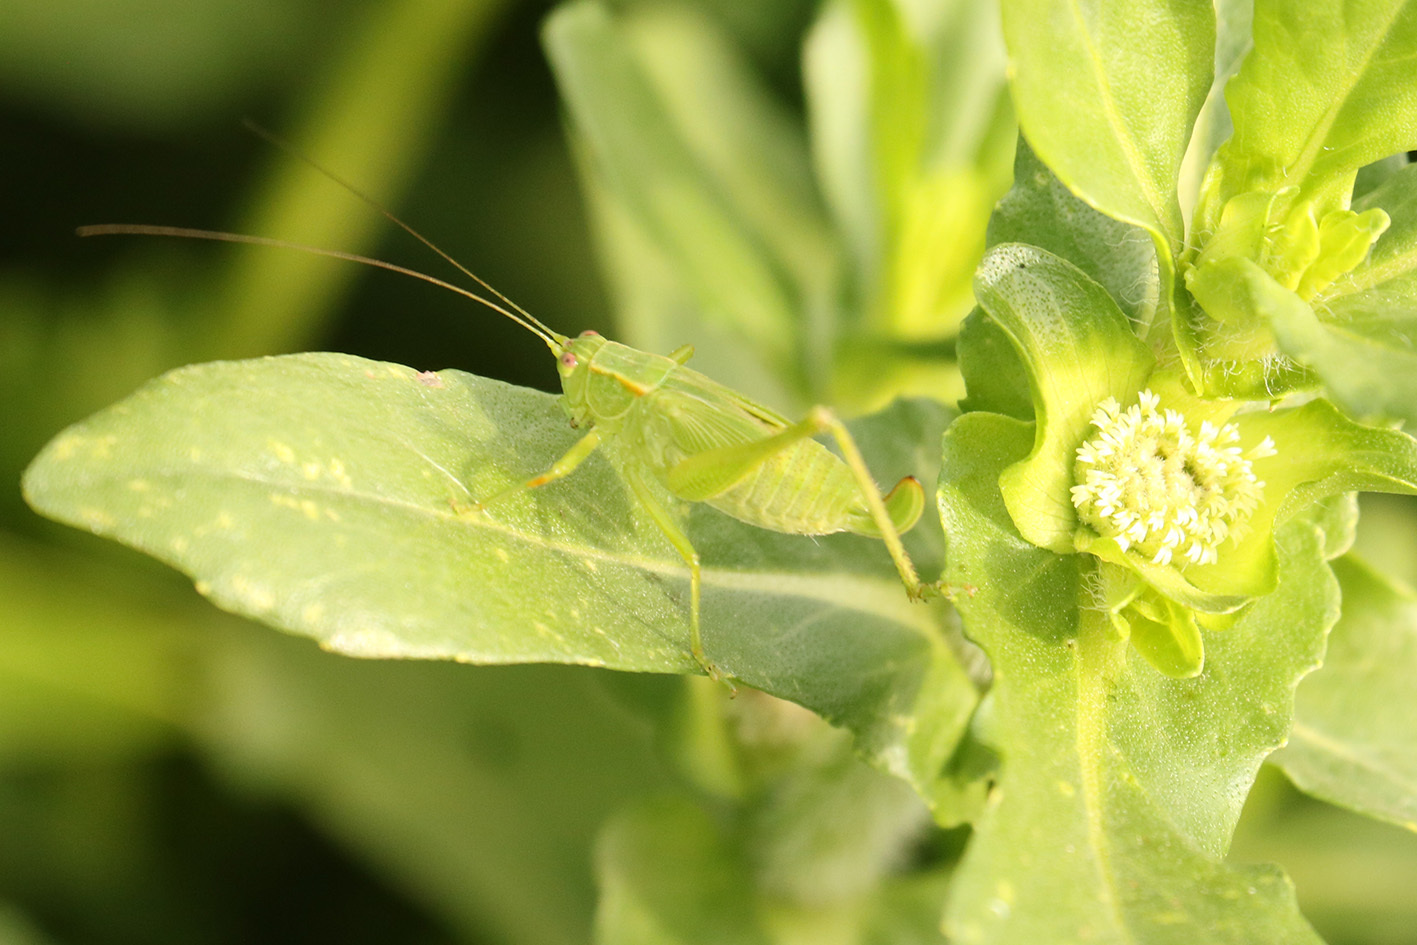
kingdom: Animalia
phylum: Arthropoda
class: Insecta
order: Orthoptera
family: Tettigoniidae
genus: Ligocatinus
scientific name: Ligocatinus spinatus
